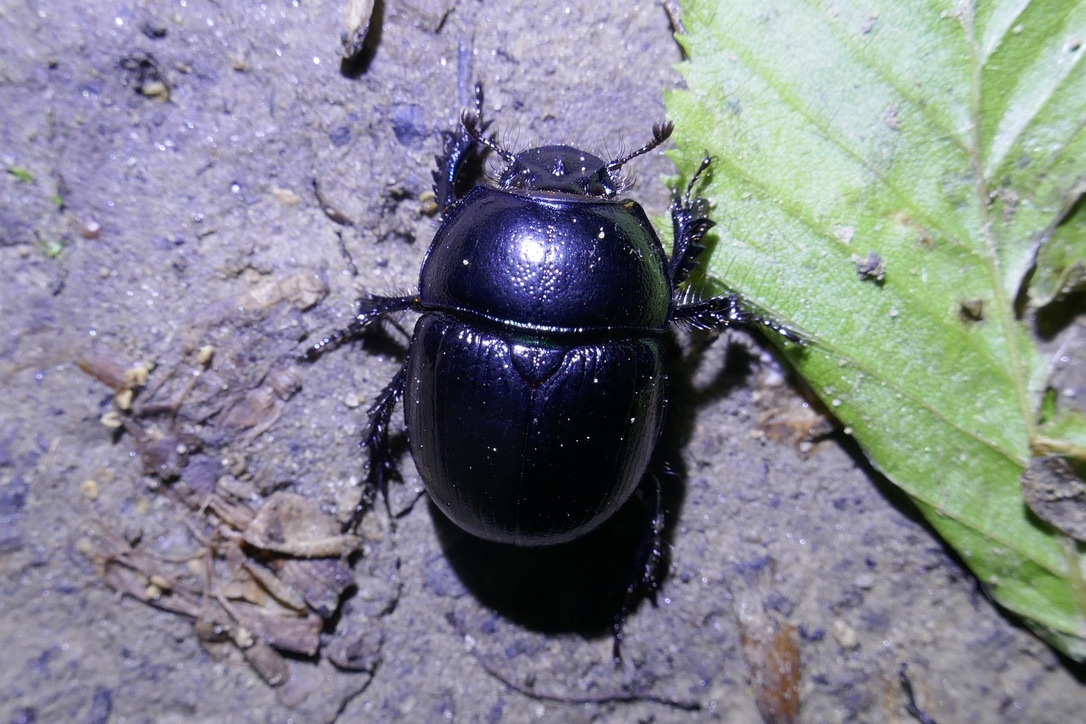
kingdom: Animalia
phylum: Arthropoda
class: Insecta
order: Coleoptera
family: Geotrupidae
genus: Anoplotrupes
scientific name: Anoplotrupes stercorosus
